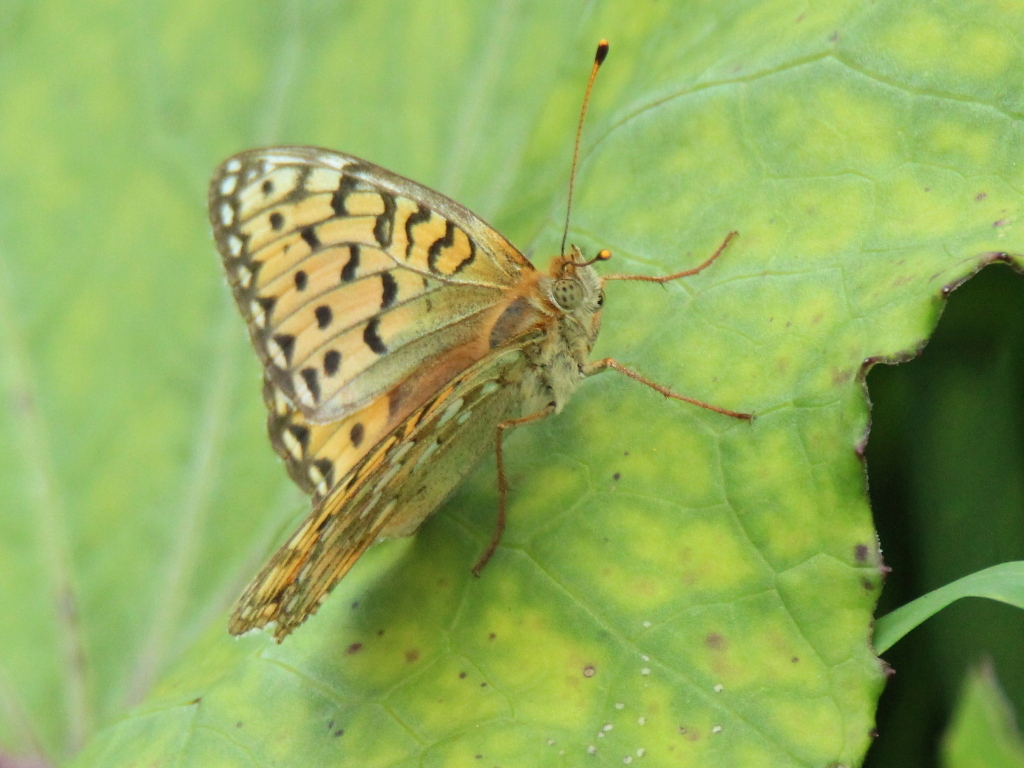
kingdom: Animalia
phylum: Arthropoda
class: Insecta
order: Lepidoptera
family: Nymphalidae
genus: Speyeria
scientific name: Speyeria aglaja
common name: Dark green fritillary
